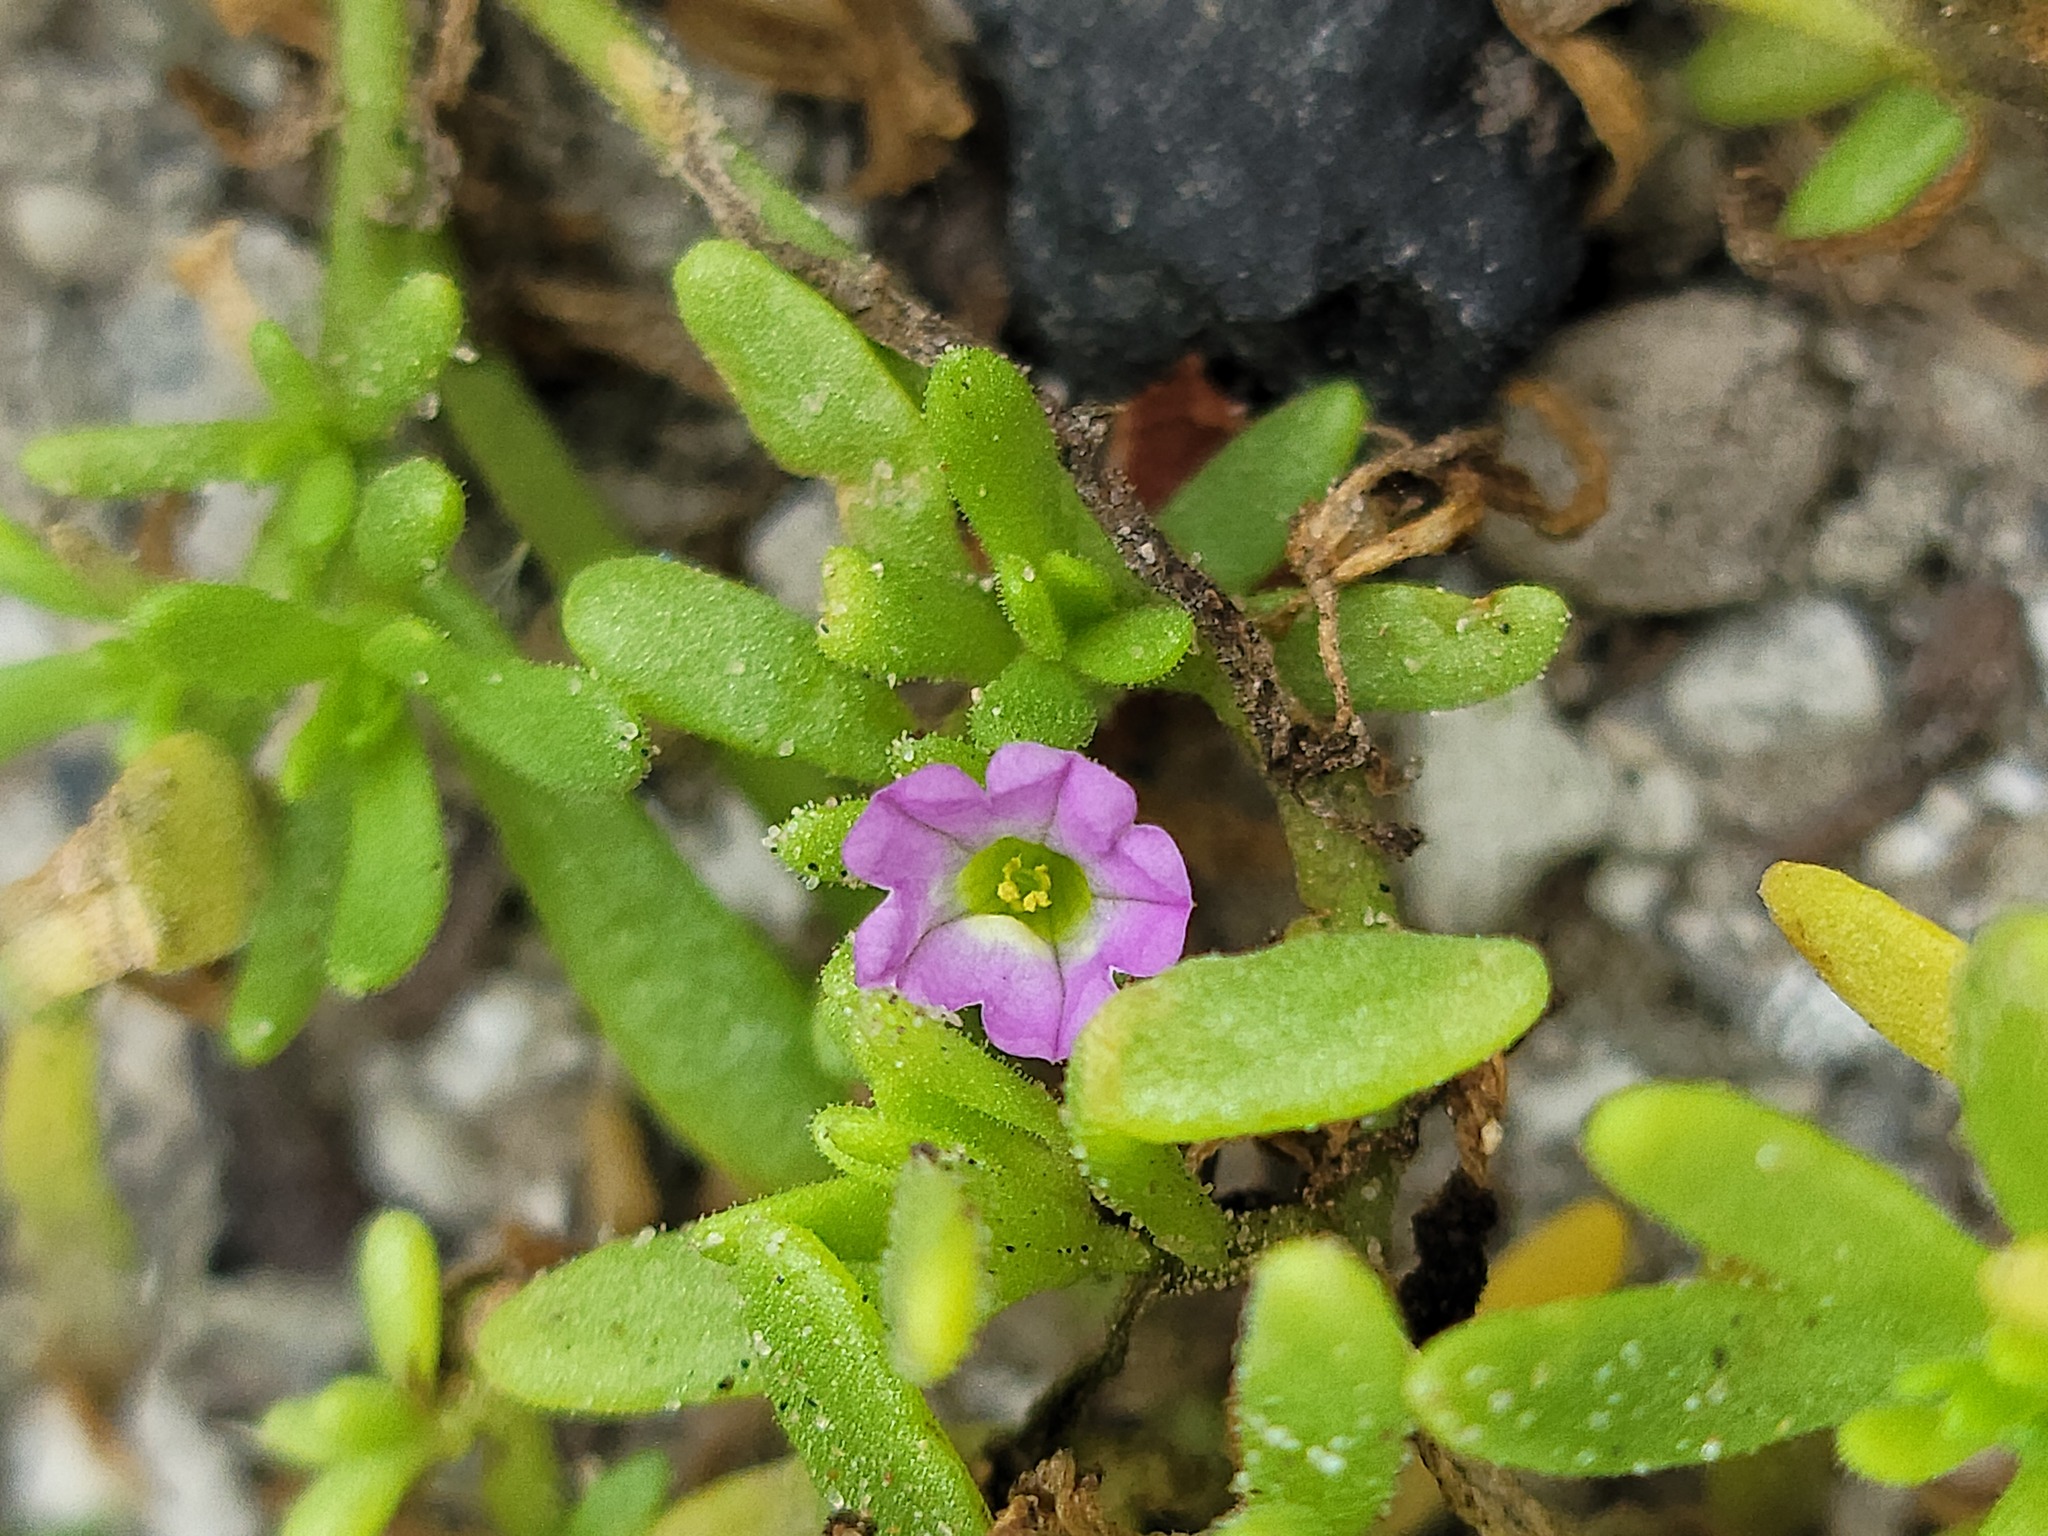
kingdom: Plantae
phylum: Tracheophyta
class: Magnoliopsida
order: Solanales
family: Solanaceae
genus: Calibrachoa
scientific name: Calibrachoa parviflora
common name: Seaside petunia
